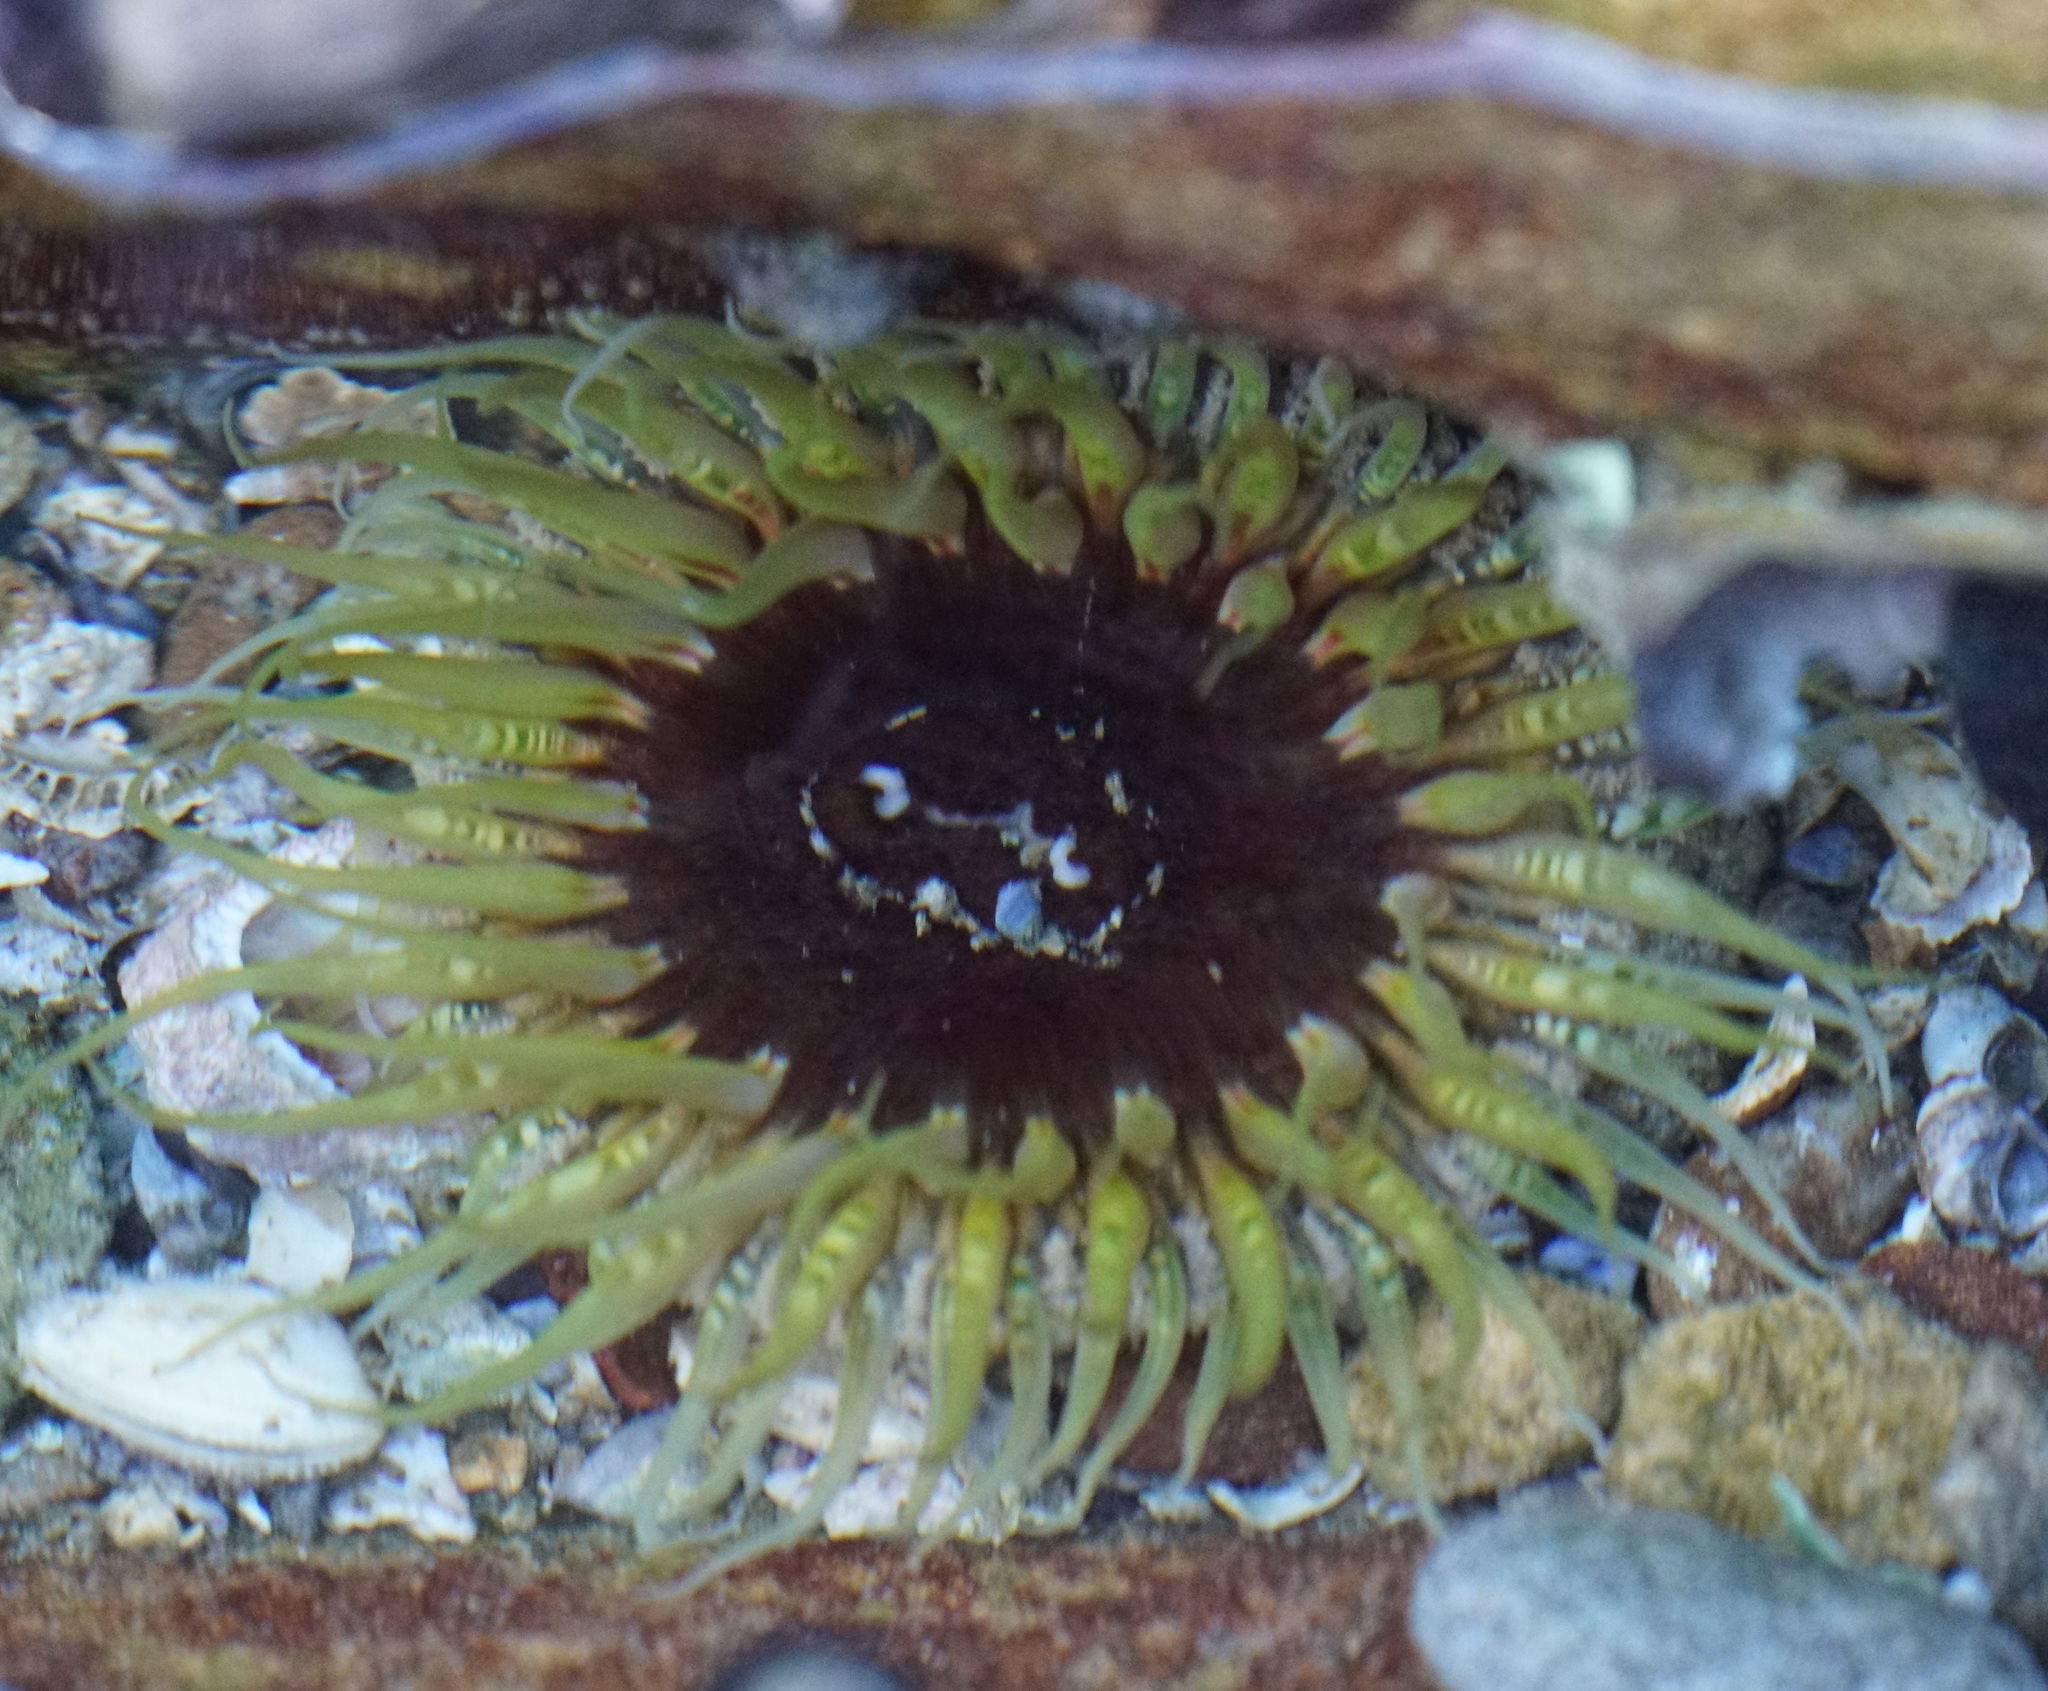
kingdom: Animalia
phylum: Cnidaria
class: Anthozoa
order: Actiniaria
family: Actiniidae
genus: Oulactis
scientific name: Oulactis muscosa
